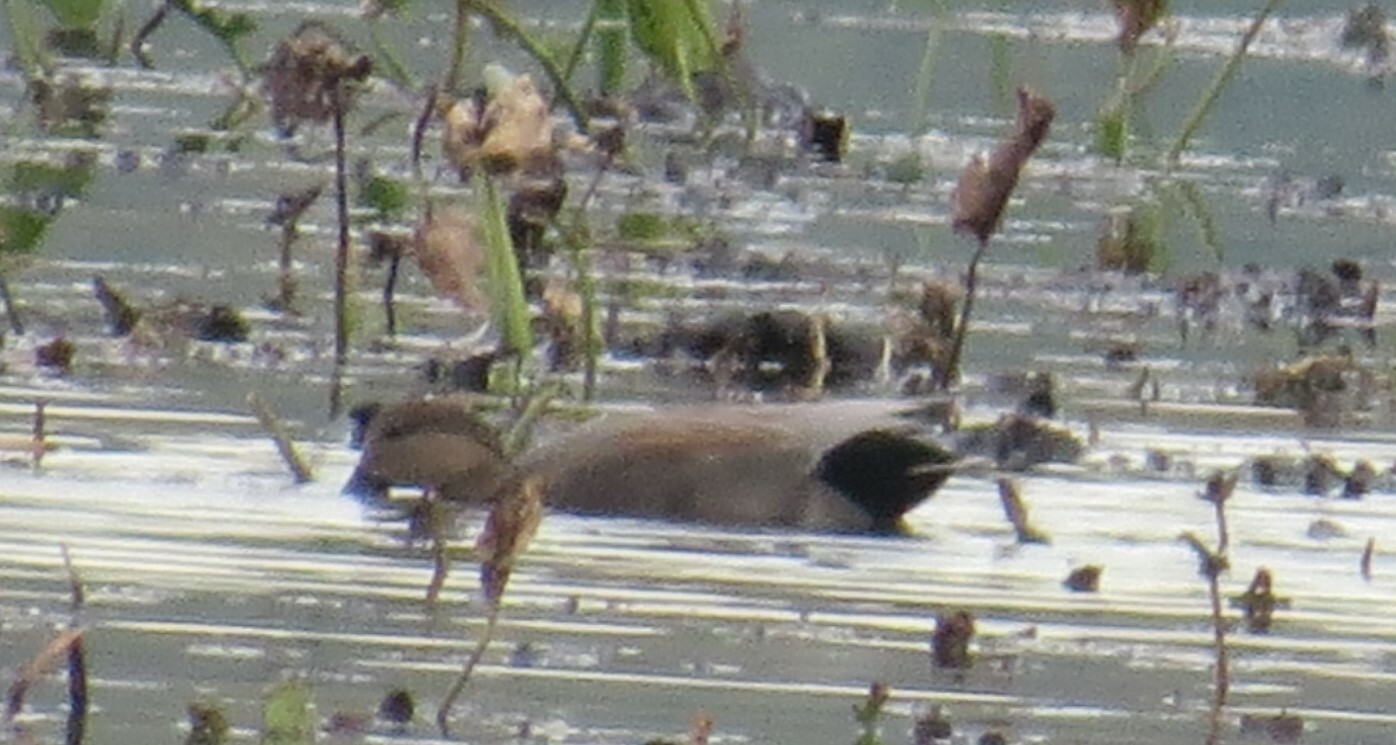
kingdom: Animalia
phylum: Chordata
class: Aves
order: Anseriformes
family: Anatidae
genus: Mareca
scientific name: Mareca strepera
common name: Gadwall
